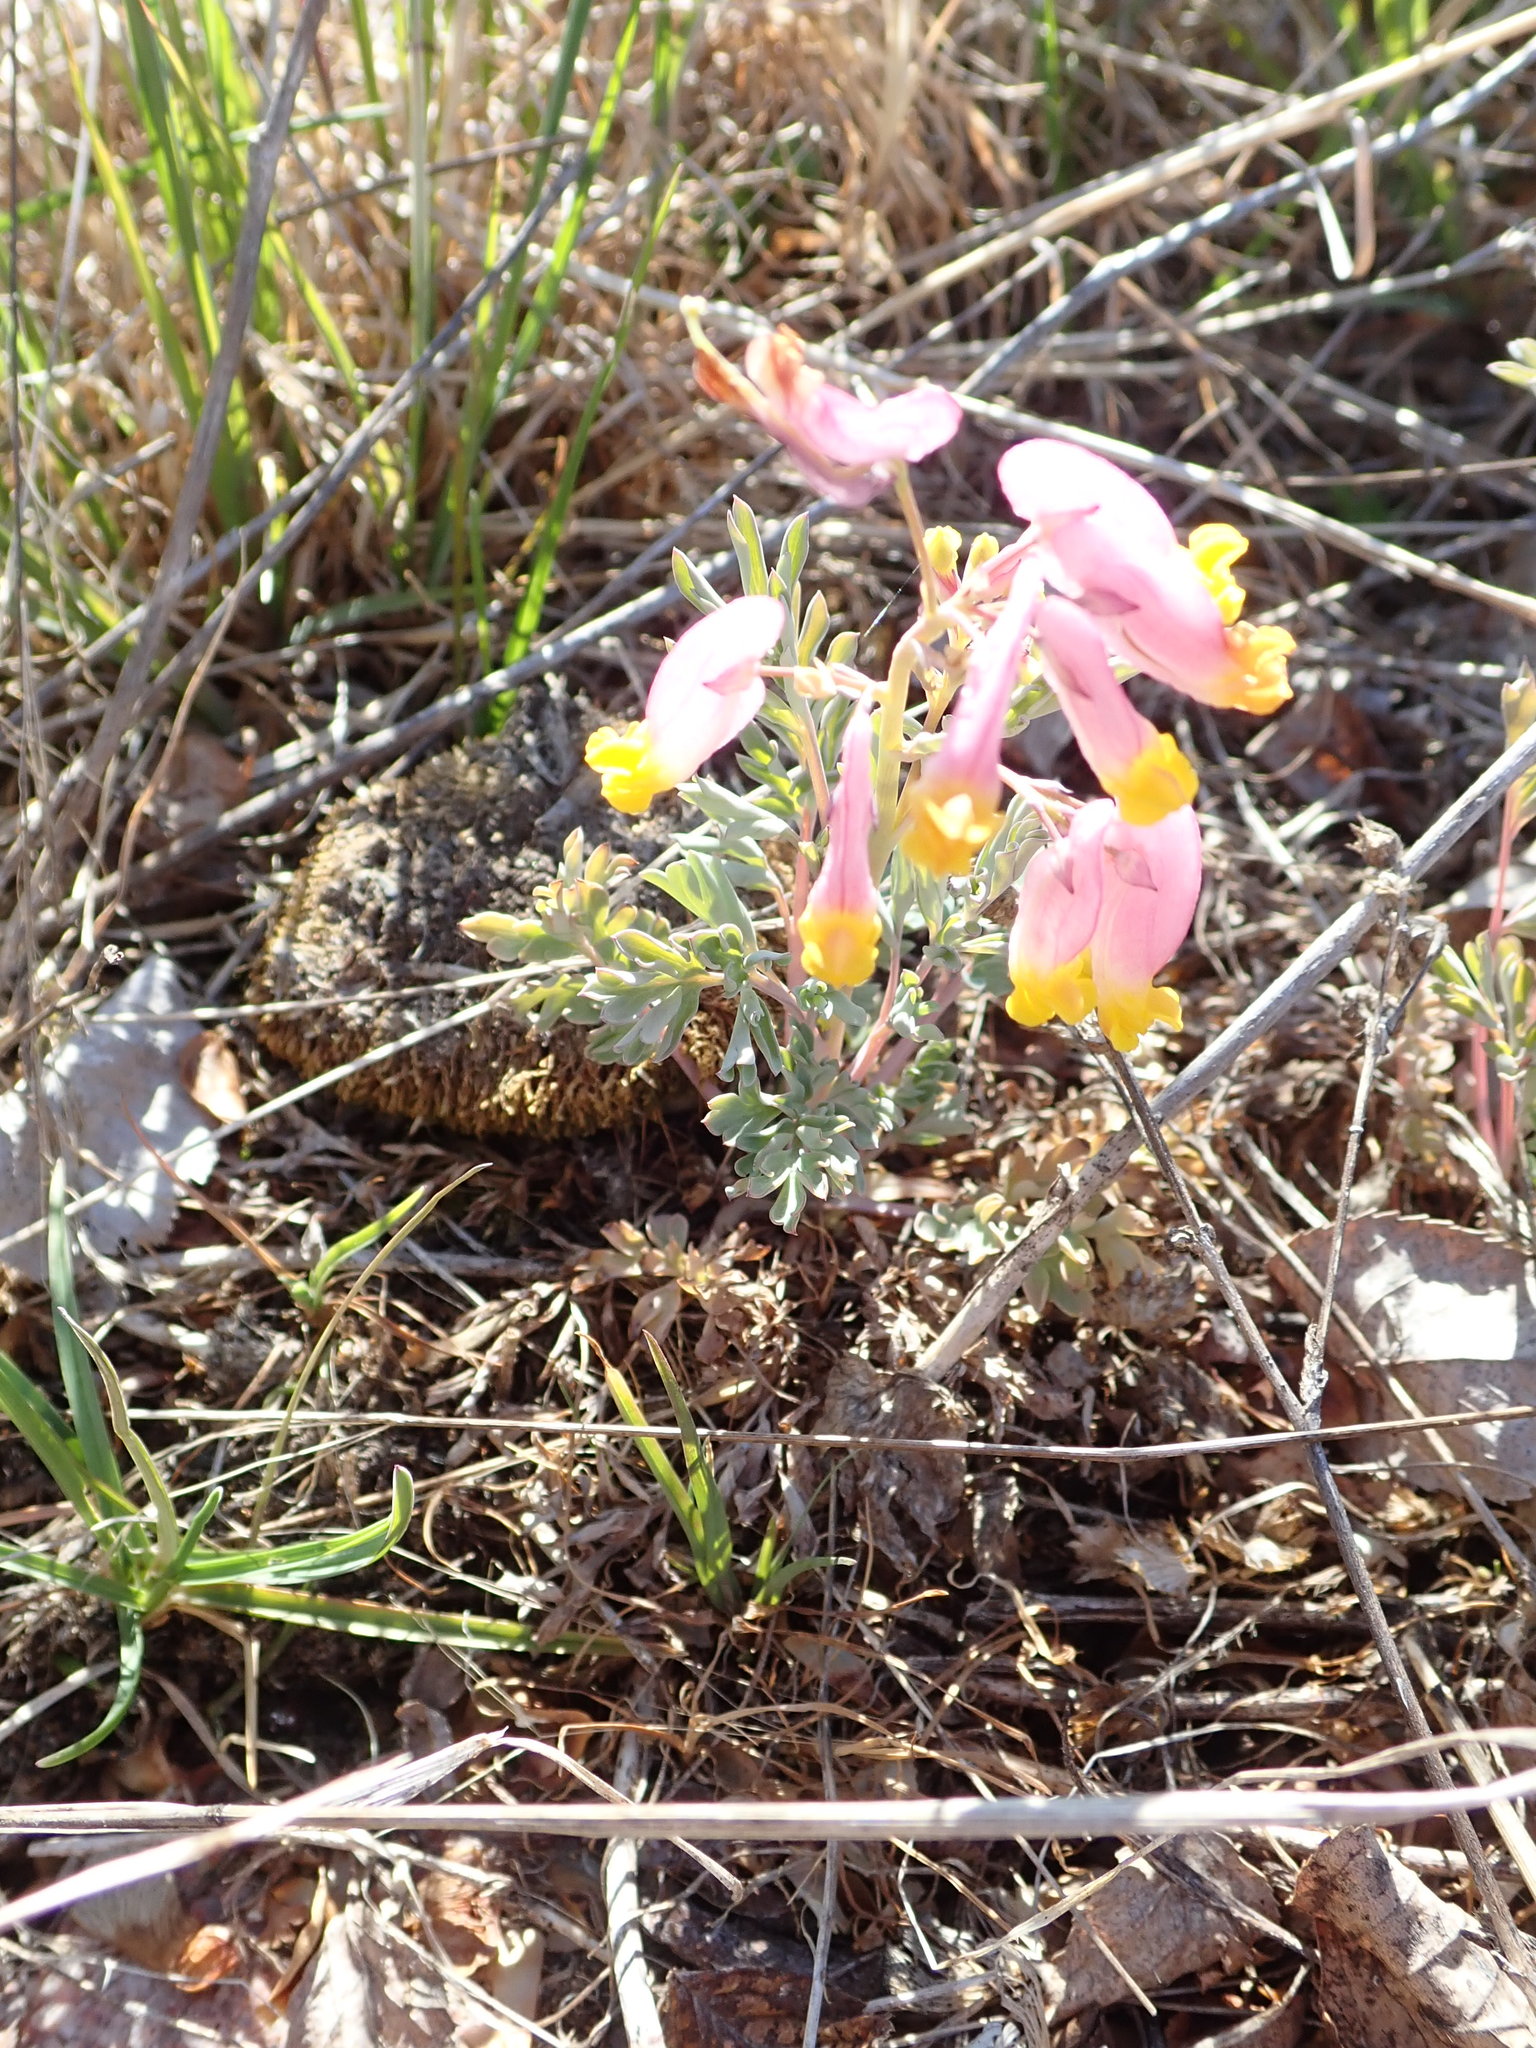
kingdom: Plantae
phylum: Tracheophyta
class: Magnoliopsida
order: Ranunculales
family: Papaveraceae
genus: Capnoides
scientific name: Capnoides sempervirens
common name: Rock harlequin
